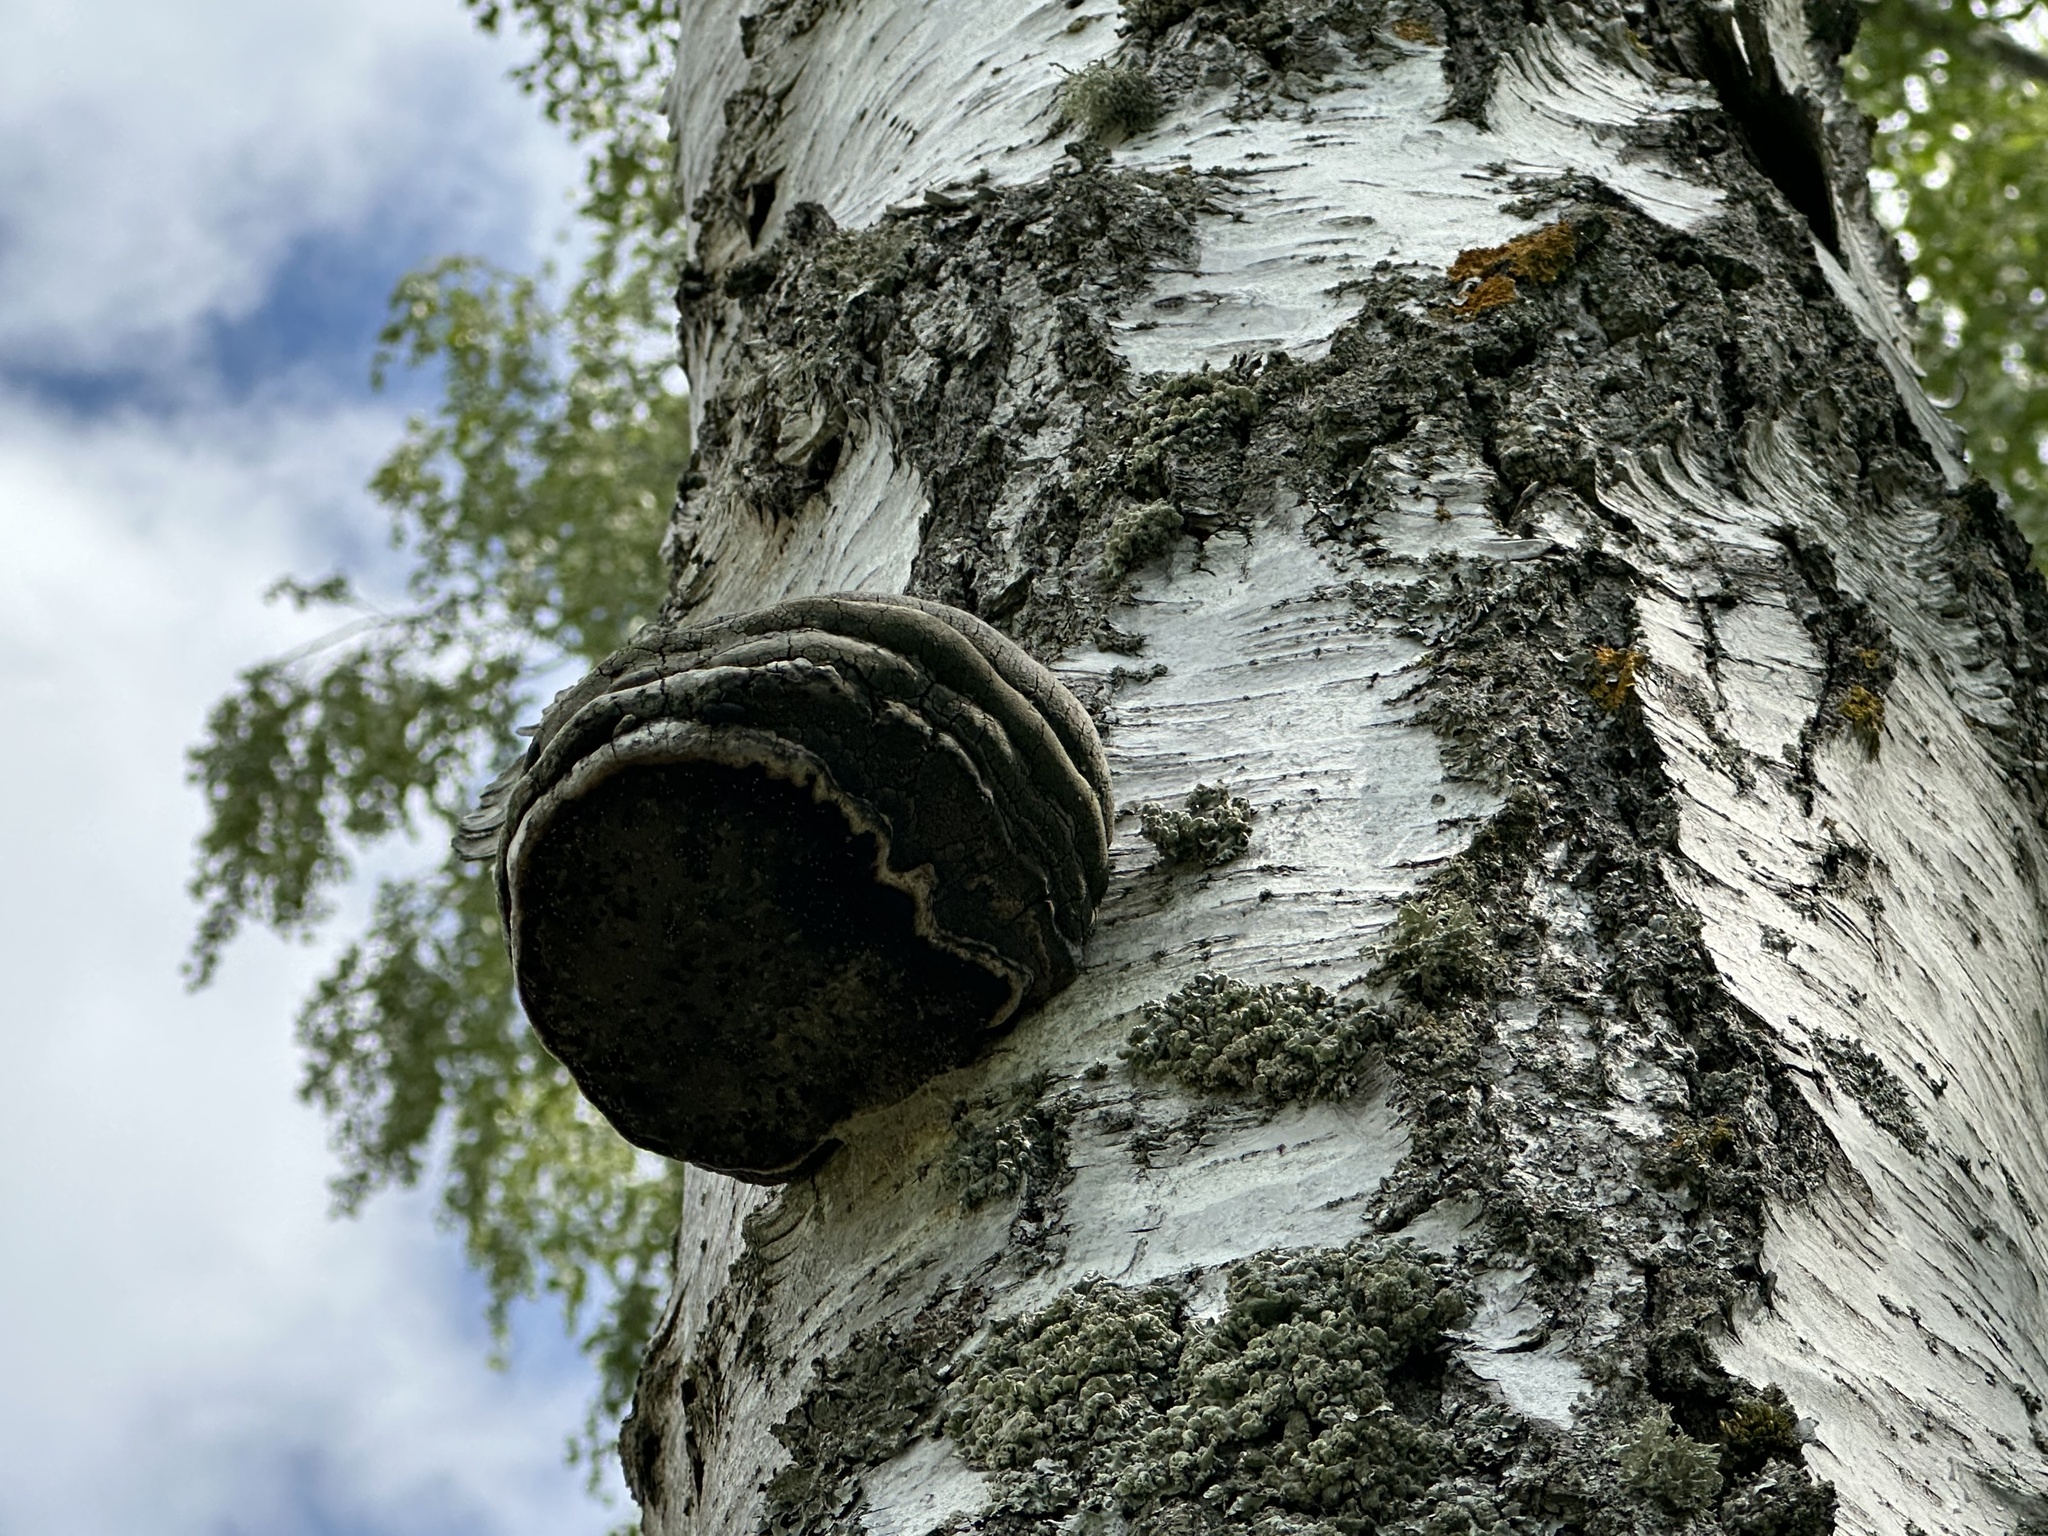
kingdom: Fungi
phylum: Basidiomycota
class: Agaricomycetes
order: Polyporales
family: Polyporaceae
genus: Fomes
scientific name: Fomes fomentarius
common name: Hoof fungus
